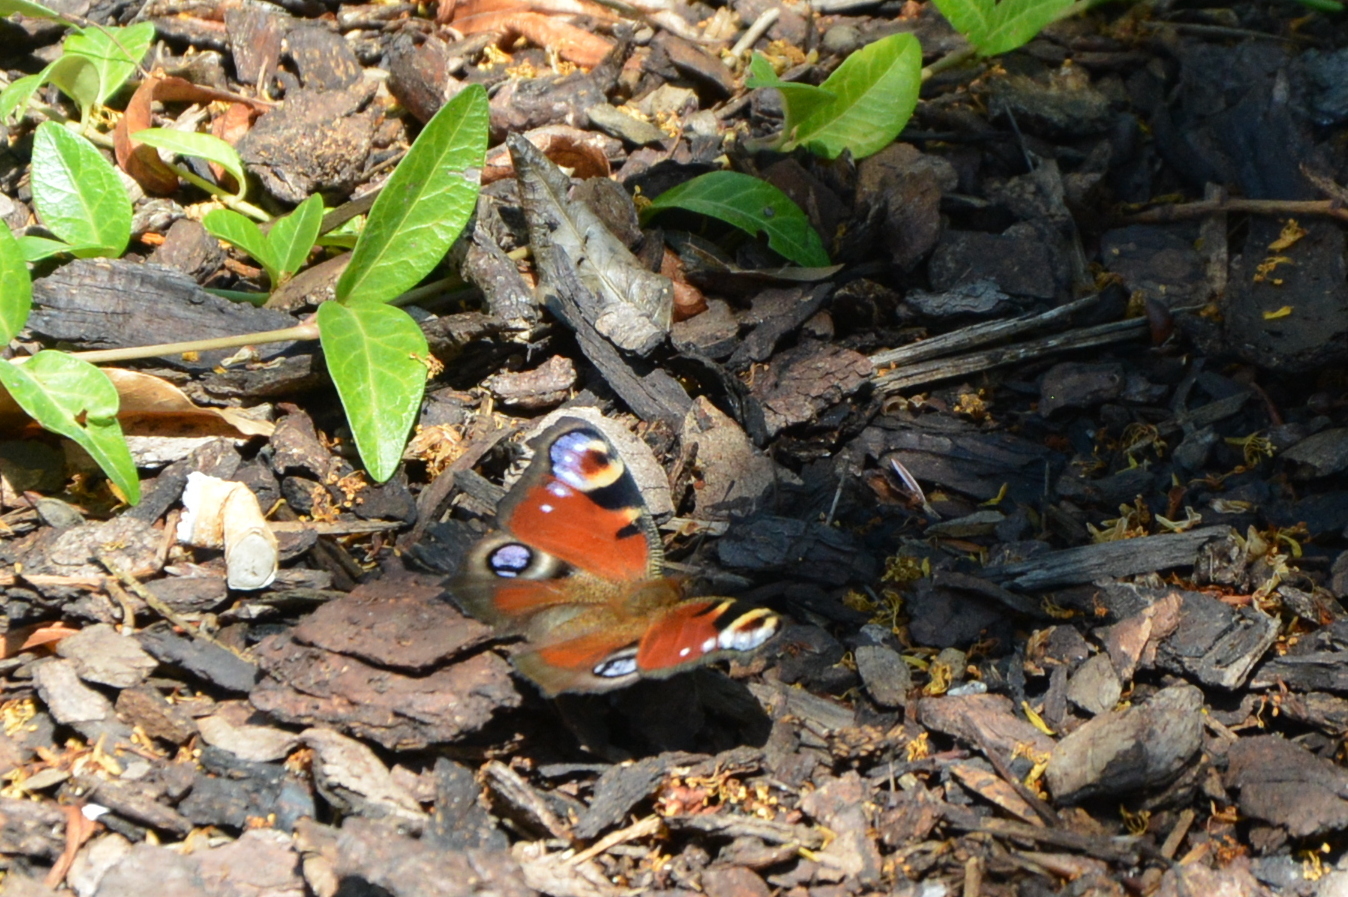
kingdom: Animalia
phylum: Arthropoda
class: Insecta
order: Lepidoptera
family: Nymphalidae
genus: Aglais
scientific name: Aglais io
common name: Peacock
